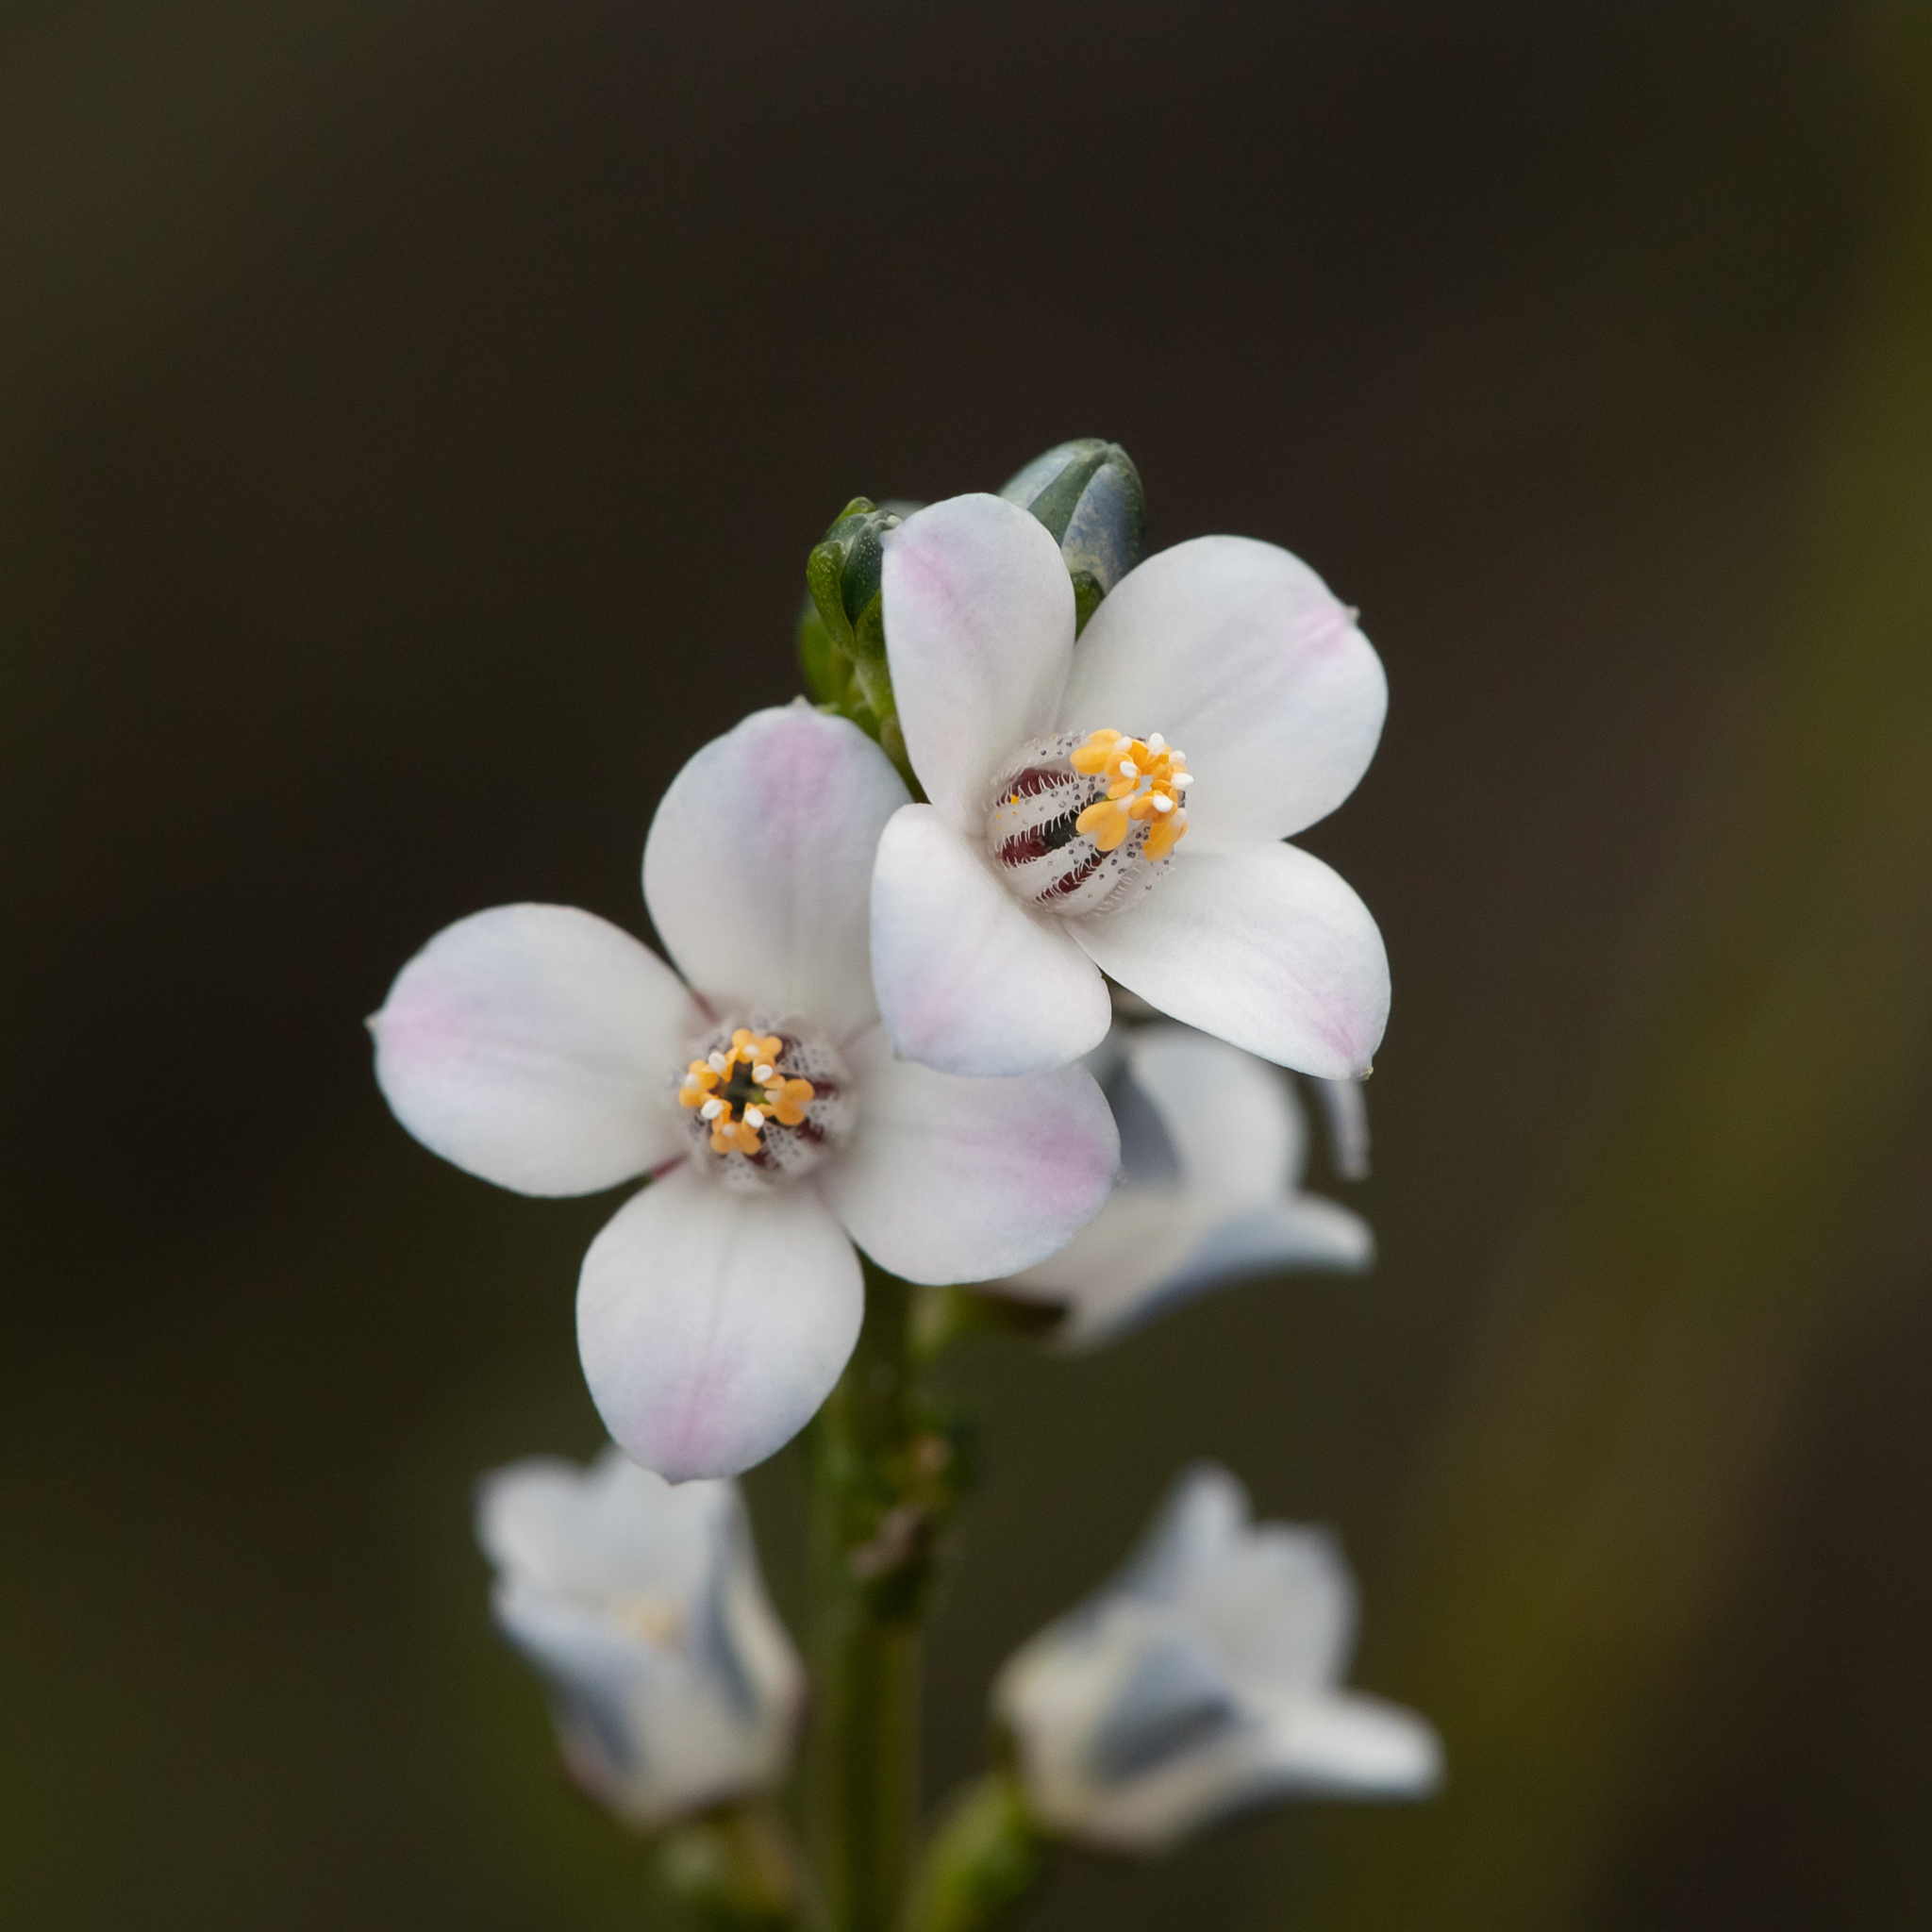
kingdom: Plantae
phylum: Tracheophyta
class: Magnoliopsida
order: Sapindales
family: Rutaceae
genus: Cyanothamnus
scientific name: Cyanothamnus coerulescens
